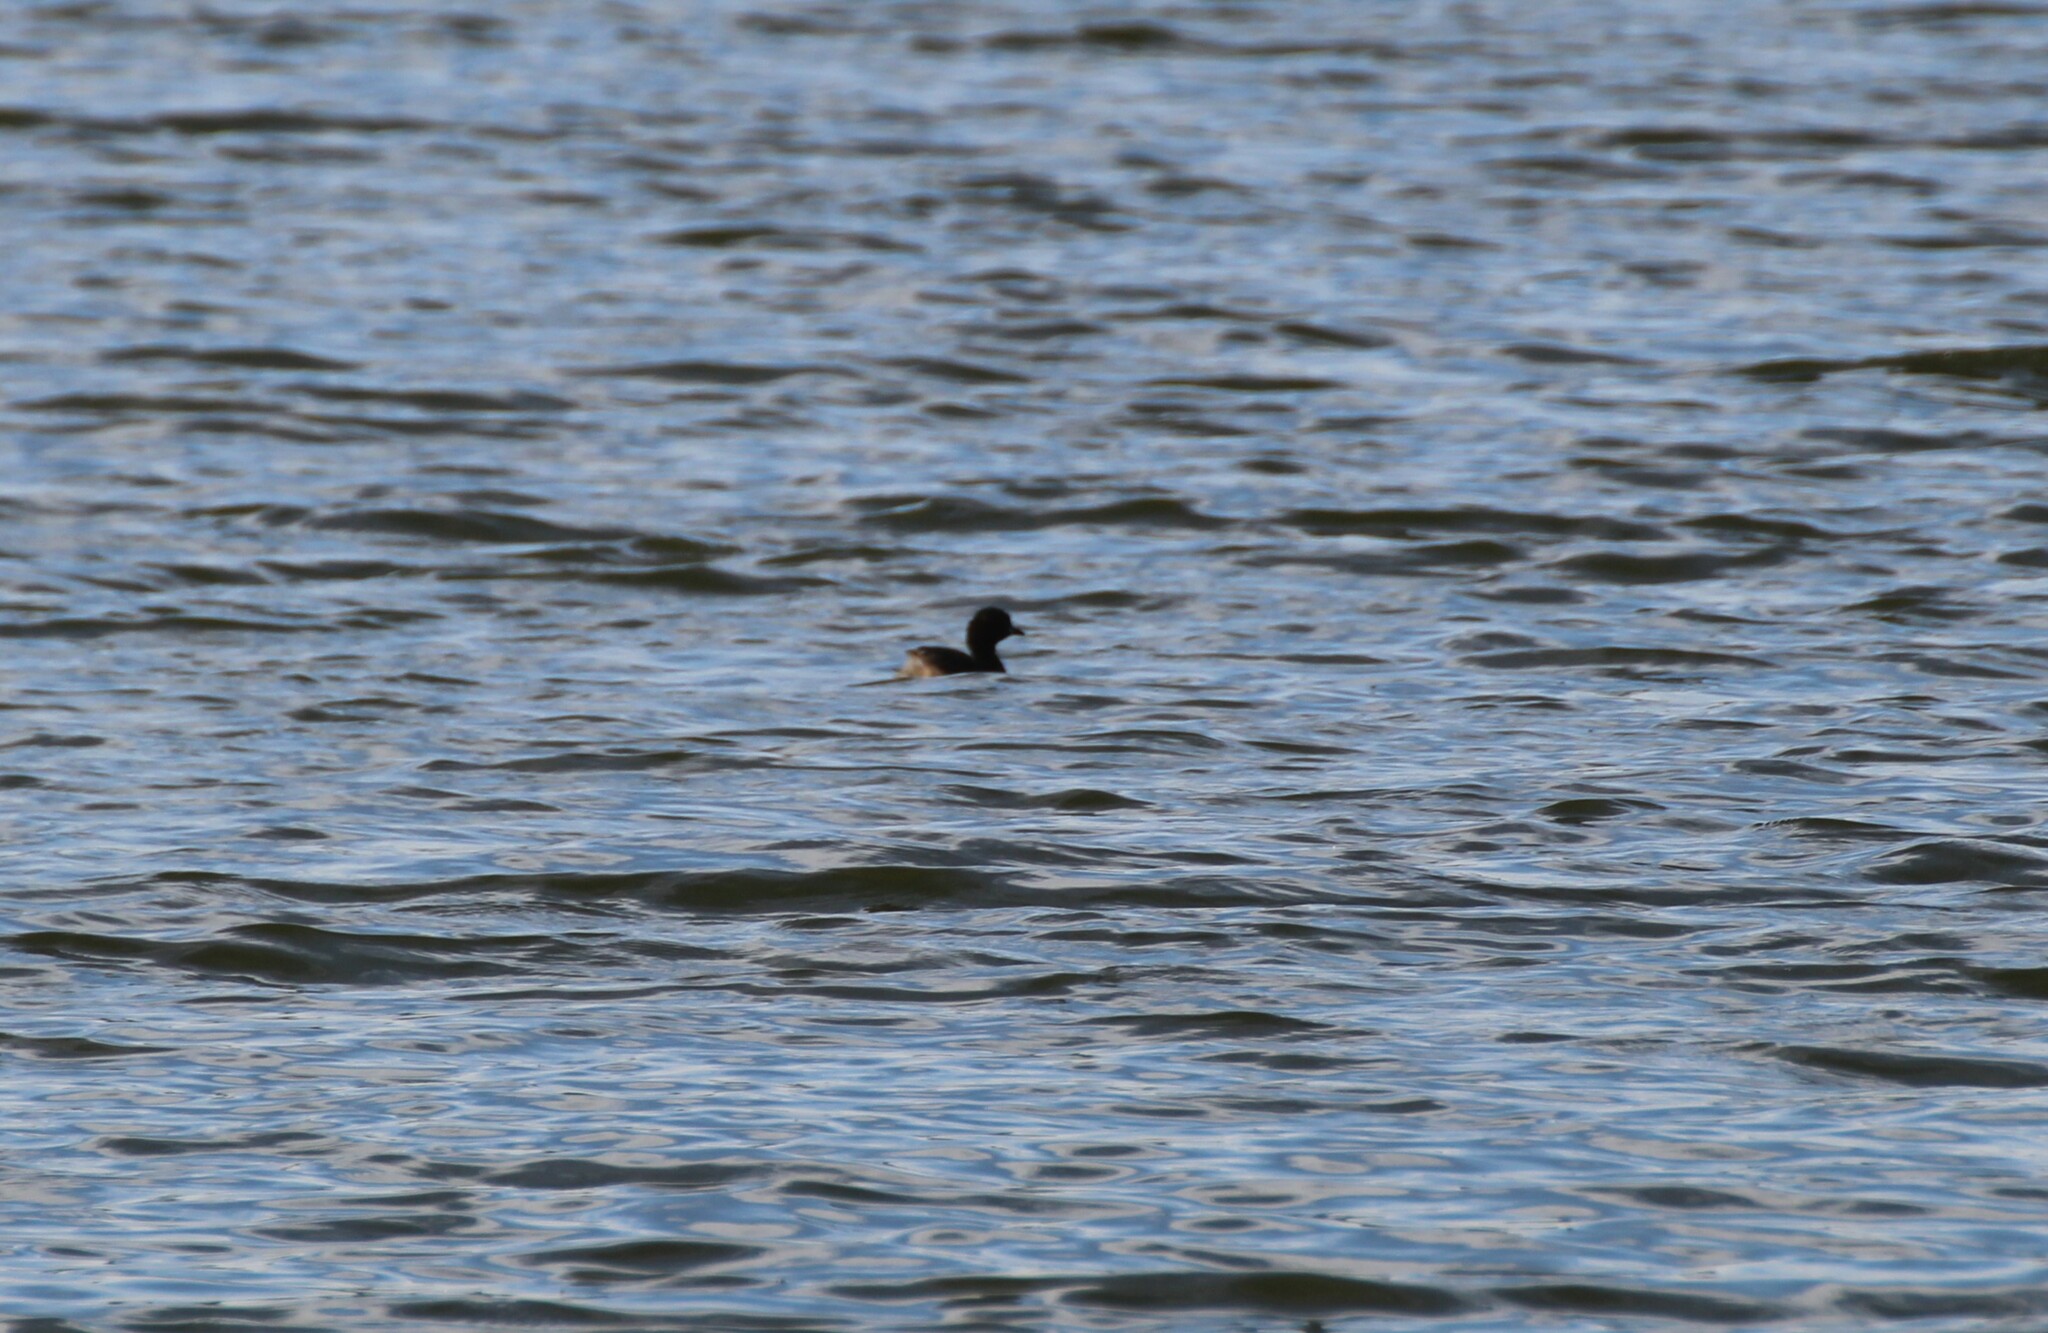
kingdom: Animalia
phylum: Chordata
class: Aves
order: Podicipediformes
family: Podicipedidae
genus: Tachybaptus
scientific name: Tachybaptus ruficollis
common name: Little grebe
